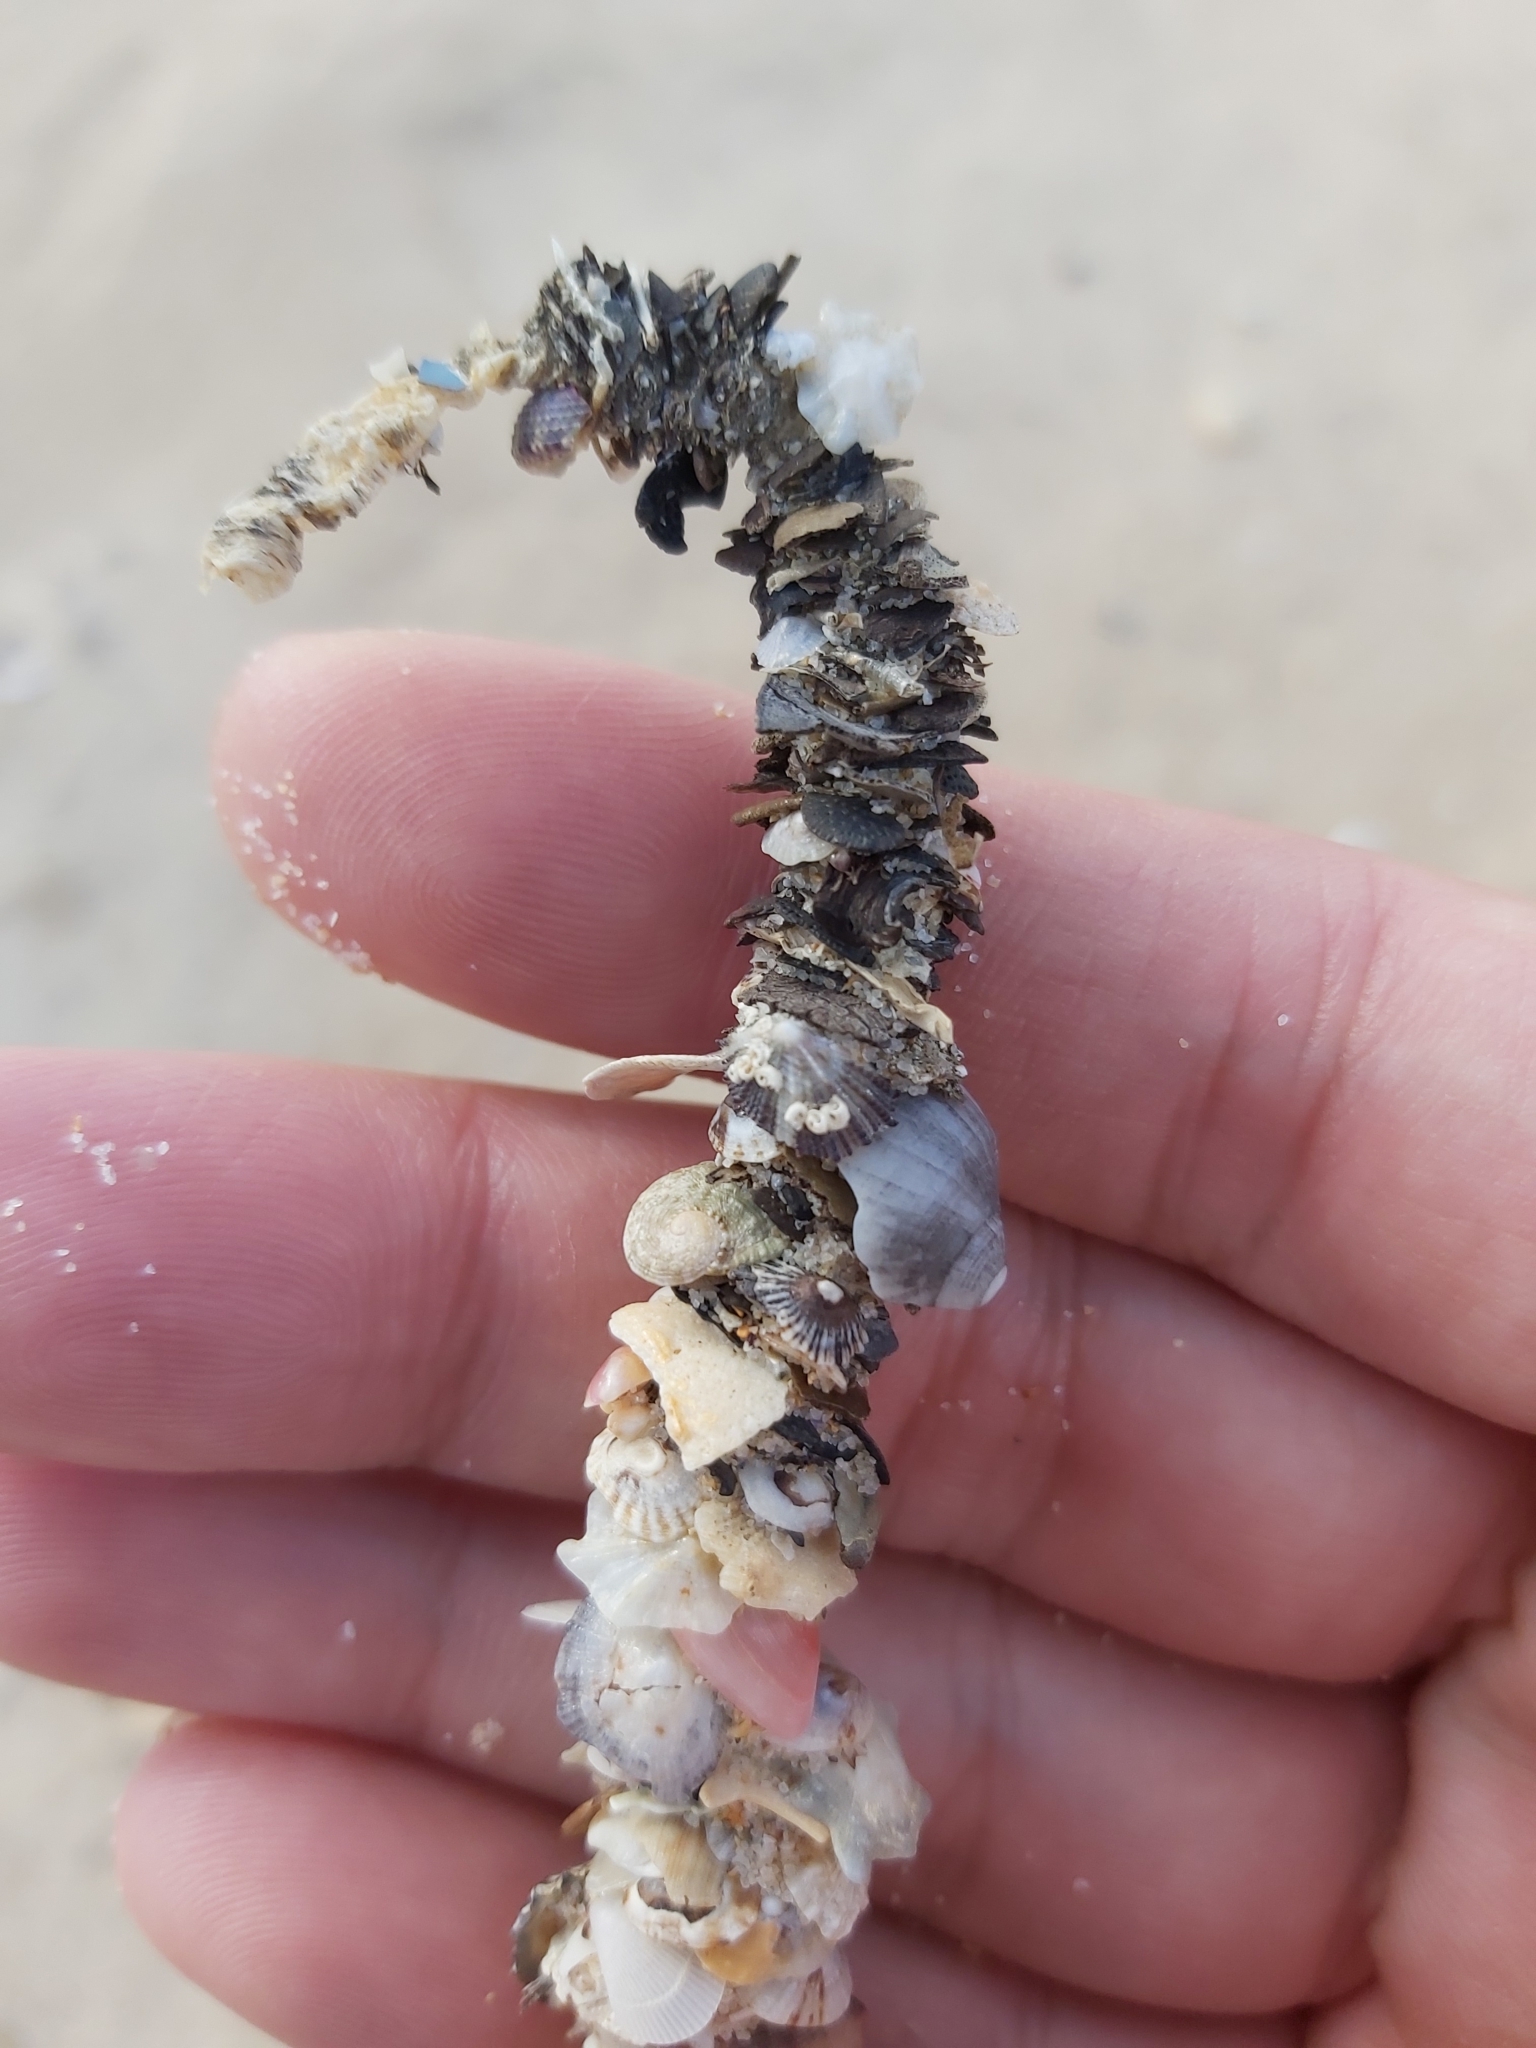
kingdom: Animalia
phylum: Annelida
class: Polychaeta
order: Eunicida
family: Onuphidae
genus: Diopatra
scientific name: Diopatra dentata
